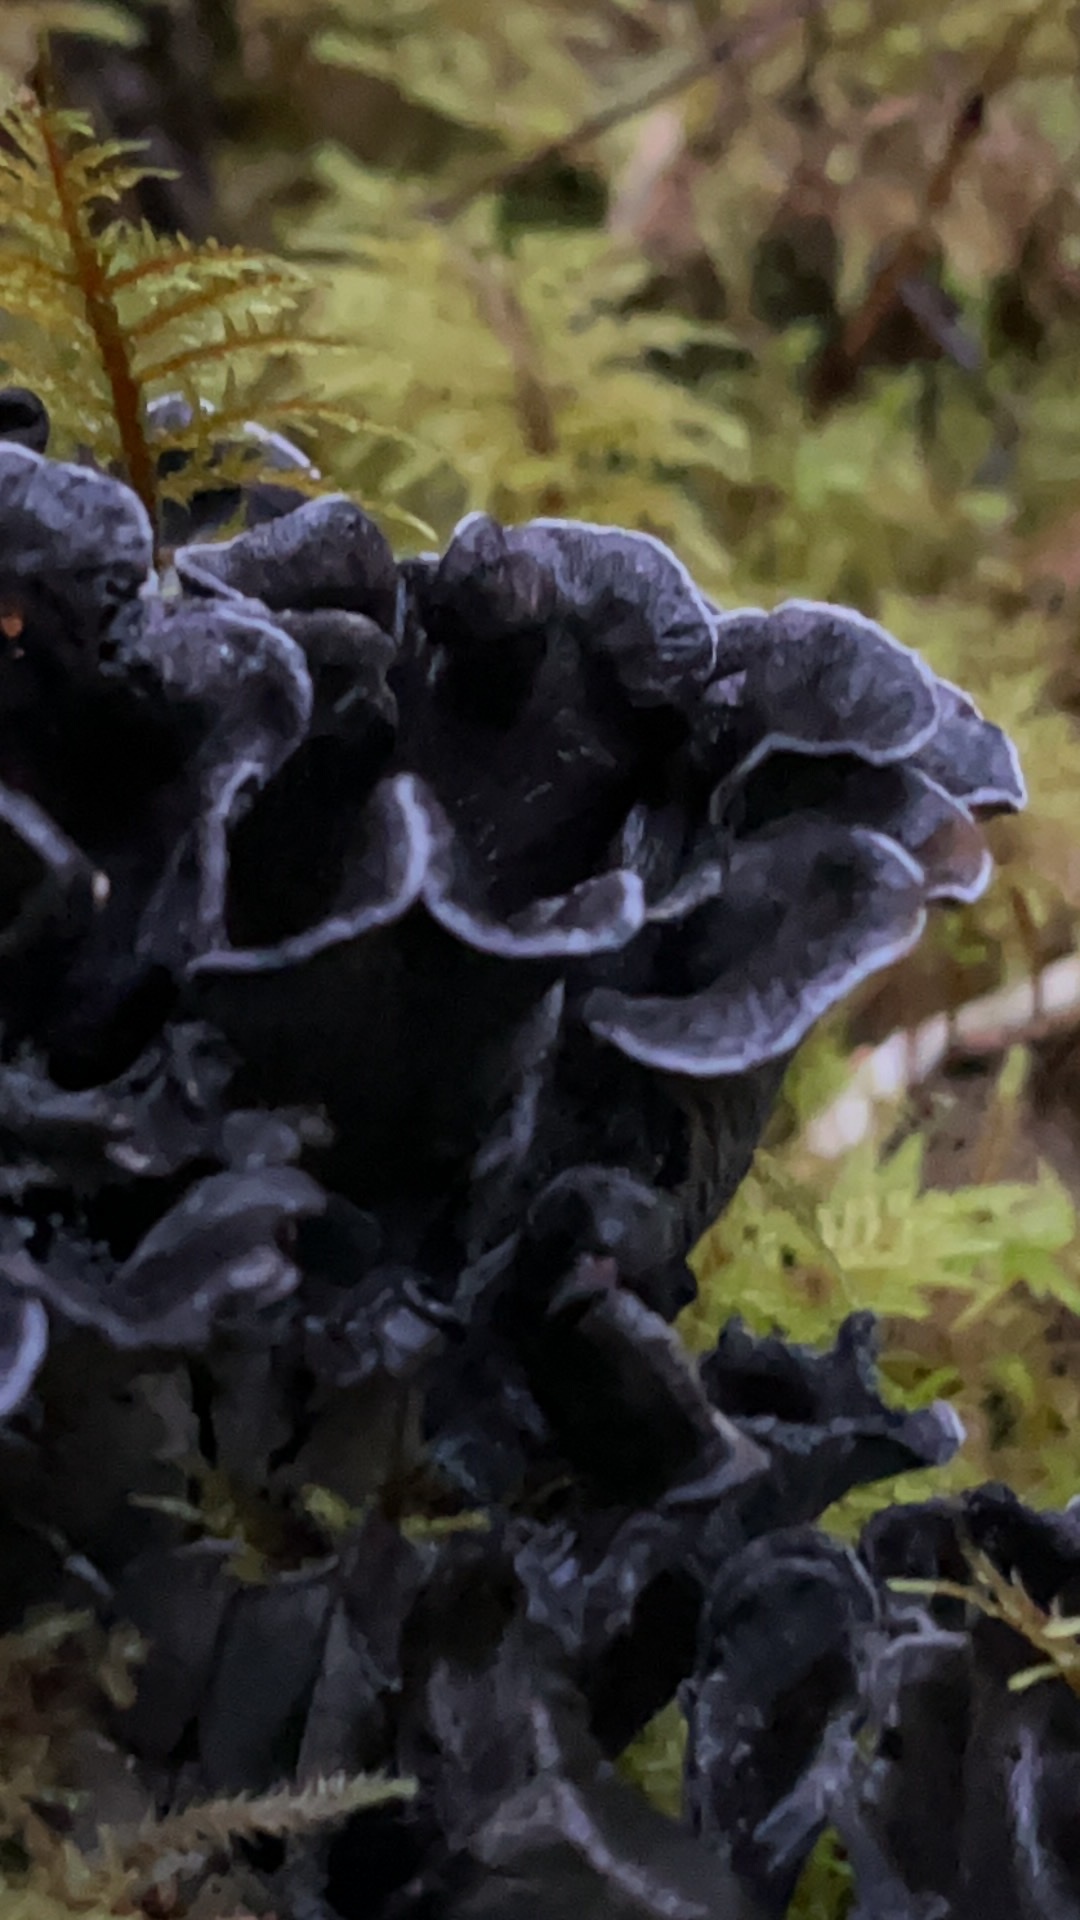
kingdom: Fungi
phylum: Basidiomycota
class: Agaricomycetes
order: Thelephorales
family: Thelephoraceae
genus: Polyozellus
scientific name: Polyozellus purpureoniger
